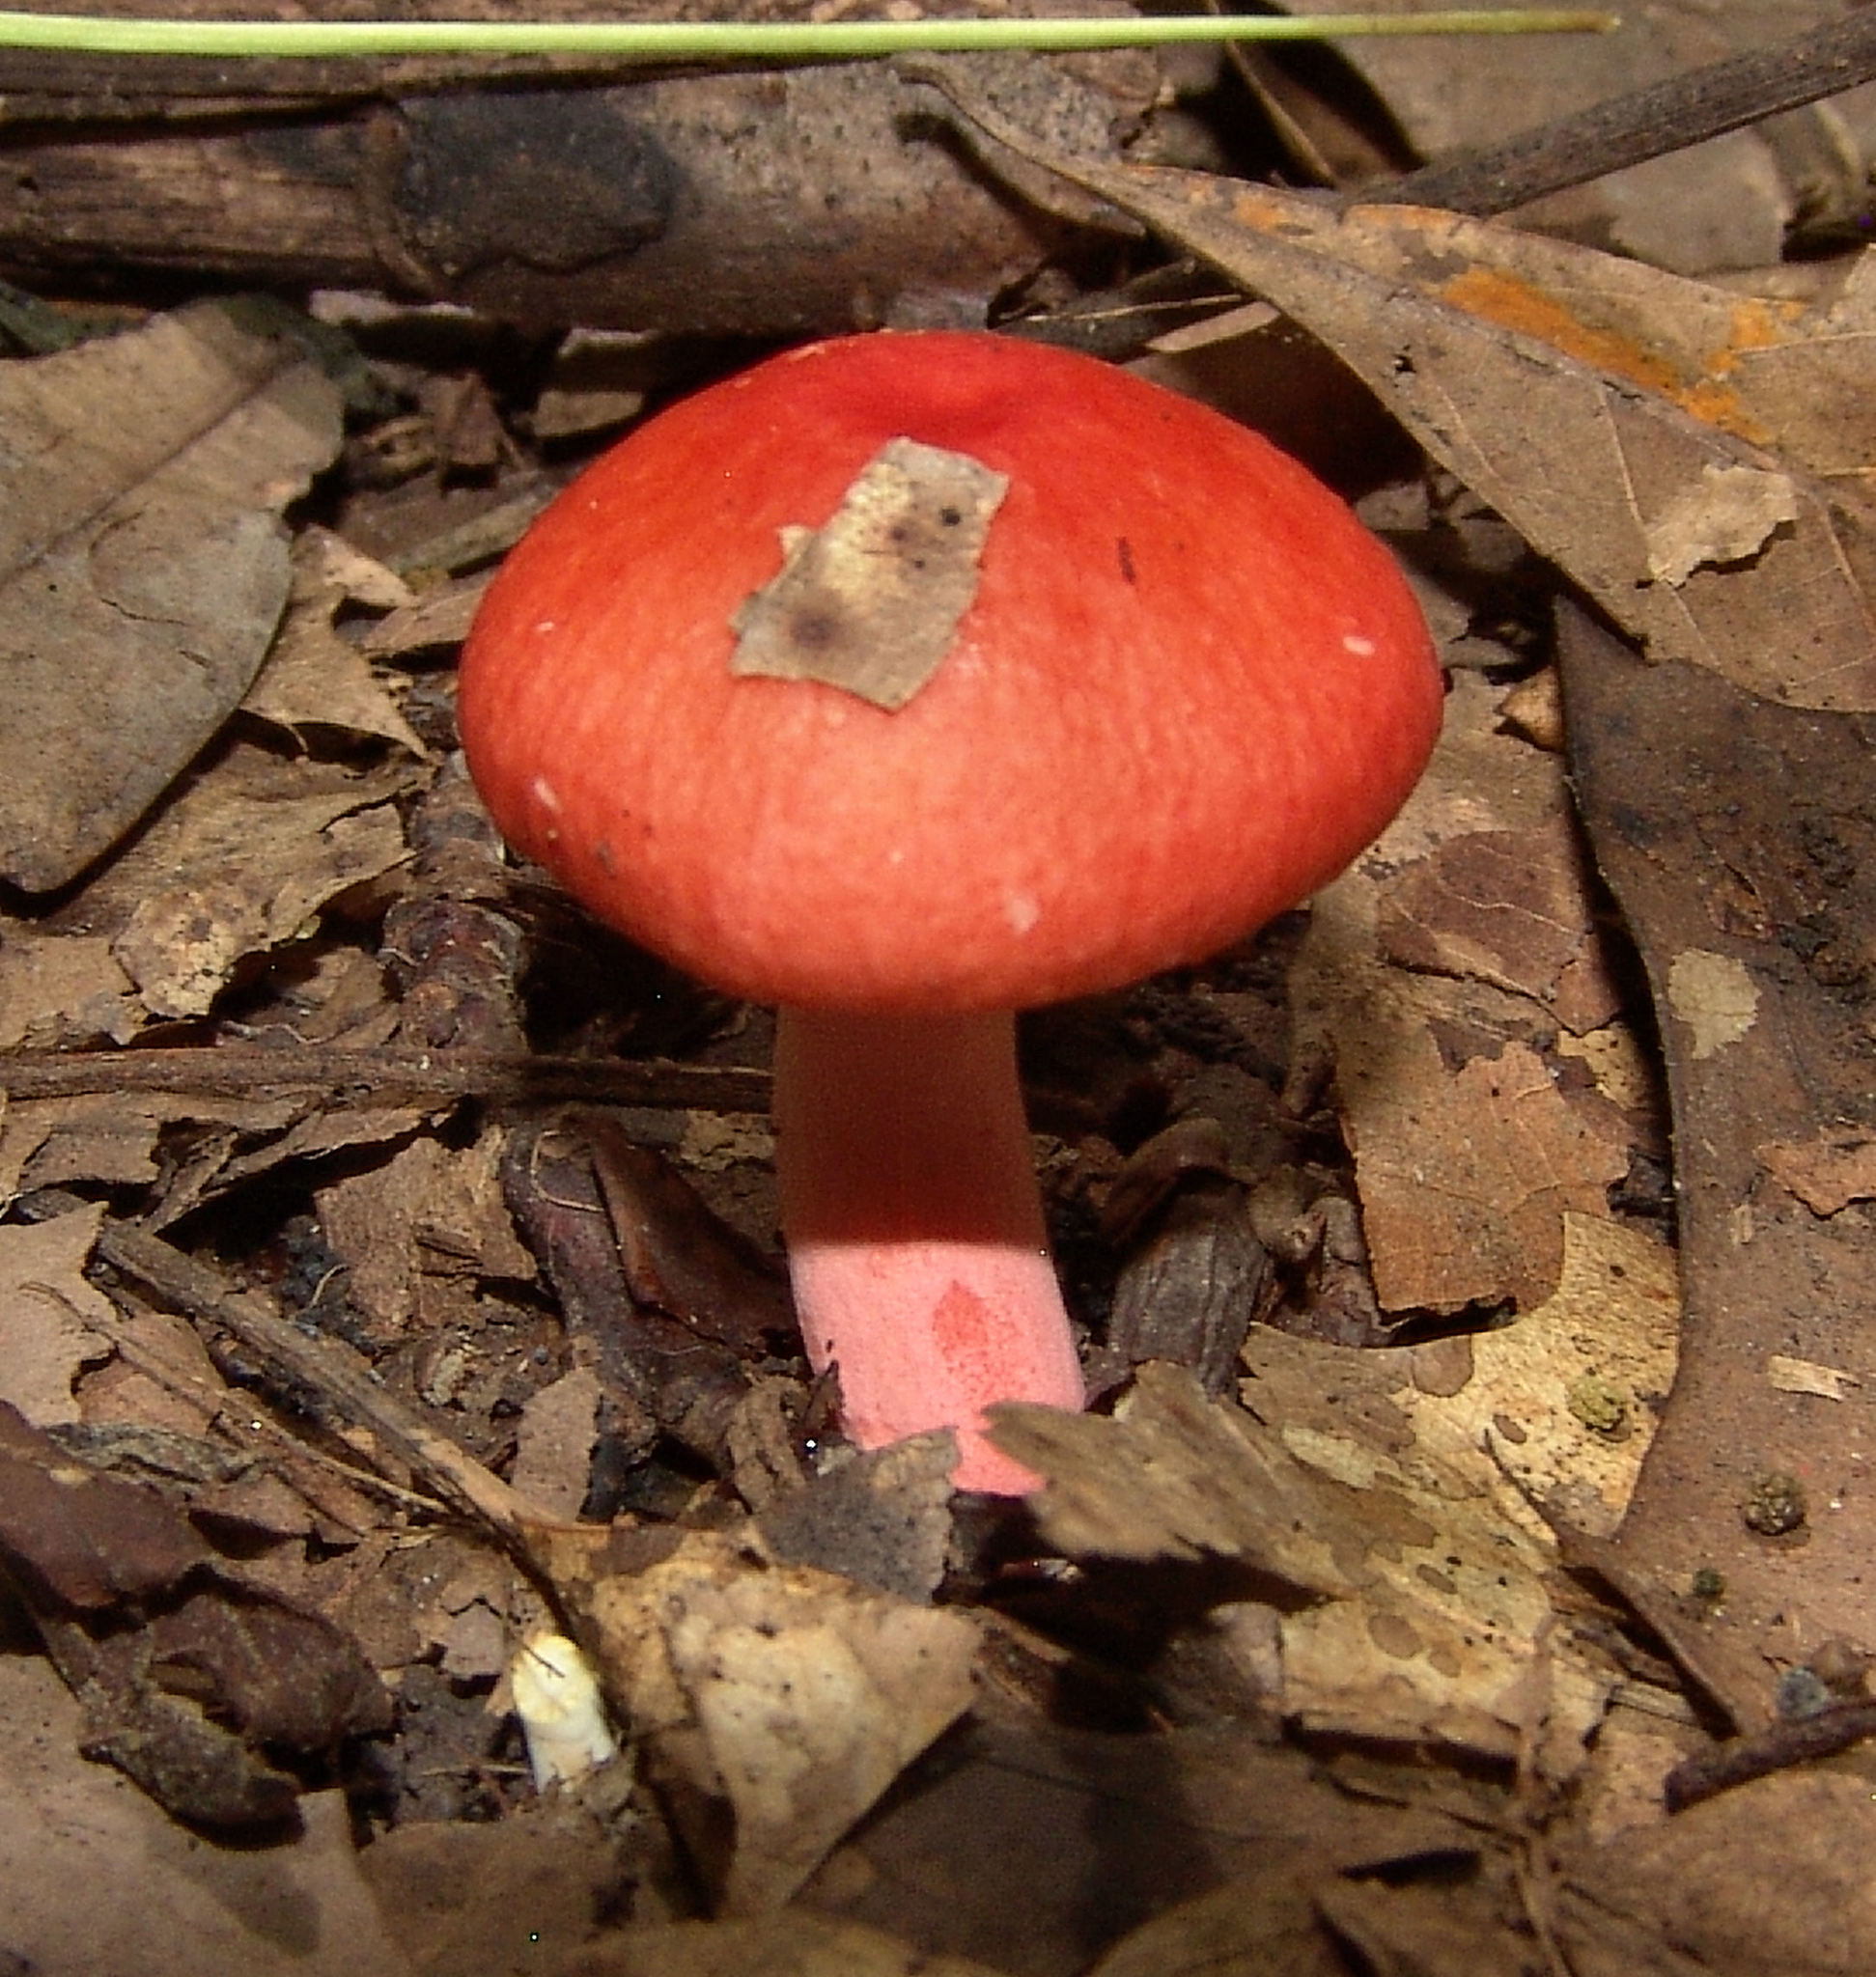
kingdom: Fungi
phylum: Basidiomycota
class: Agaricomycetes
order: Russulales
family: Russulaceae
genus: Russula
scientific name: Russula
